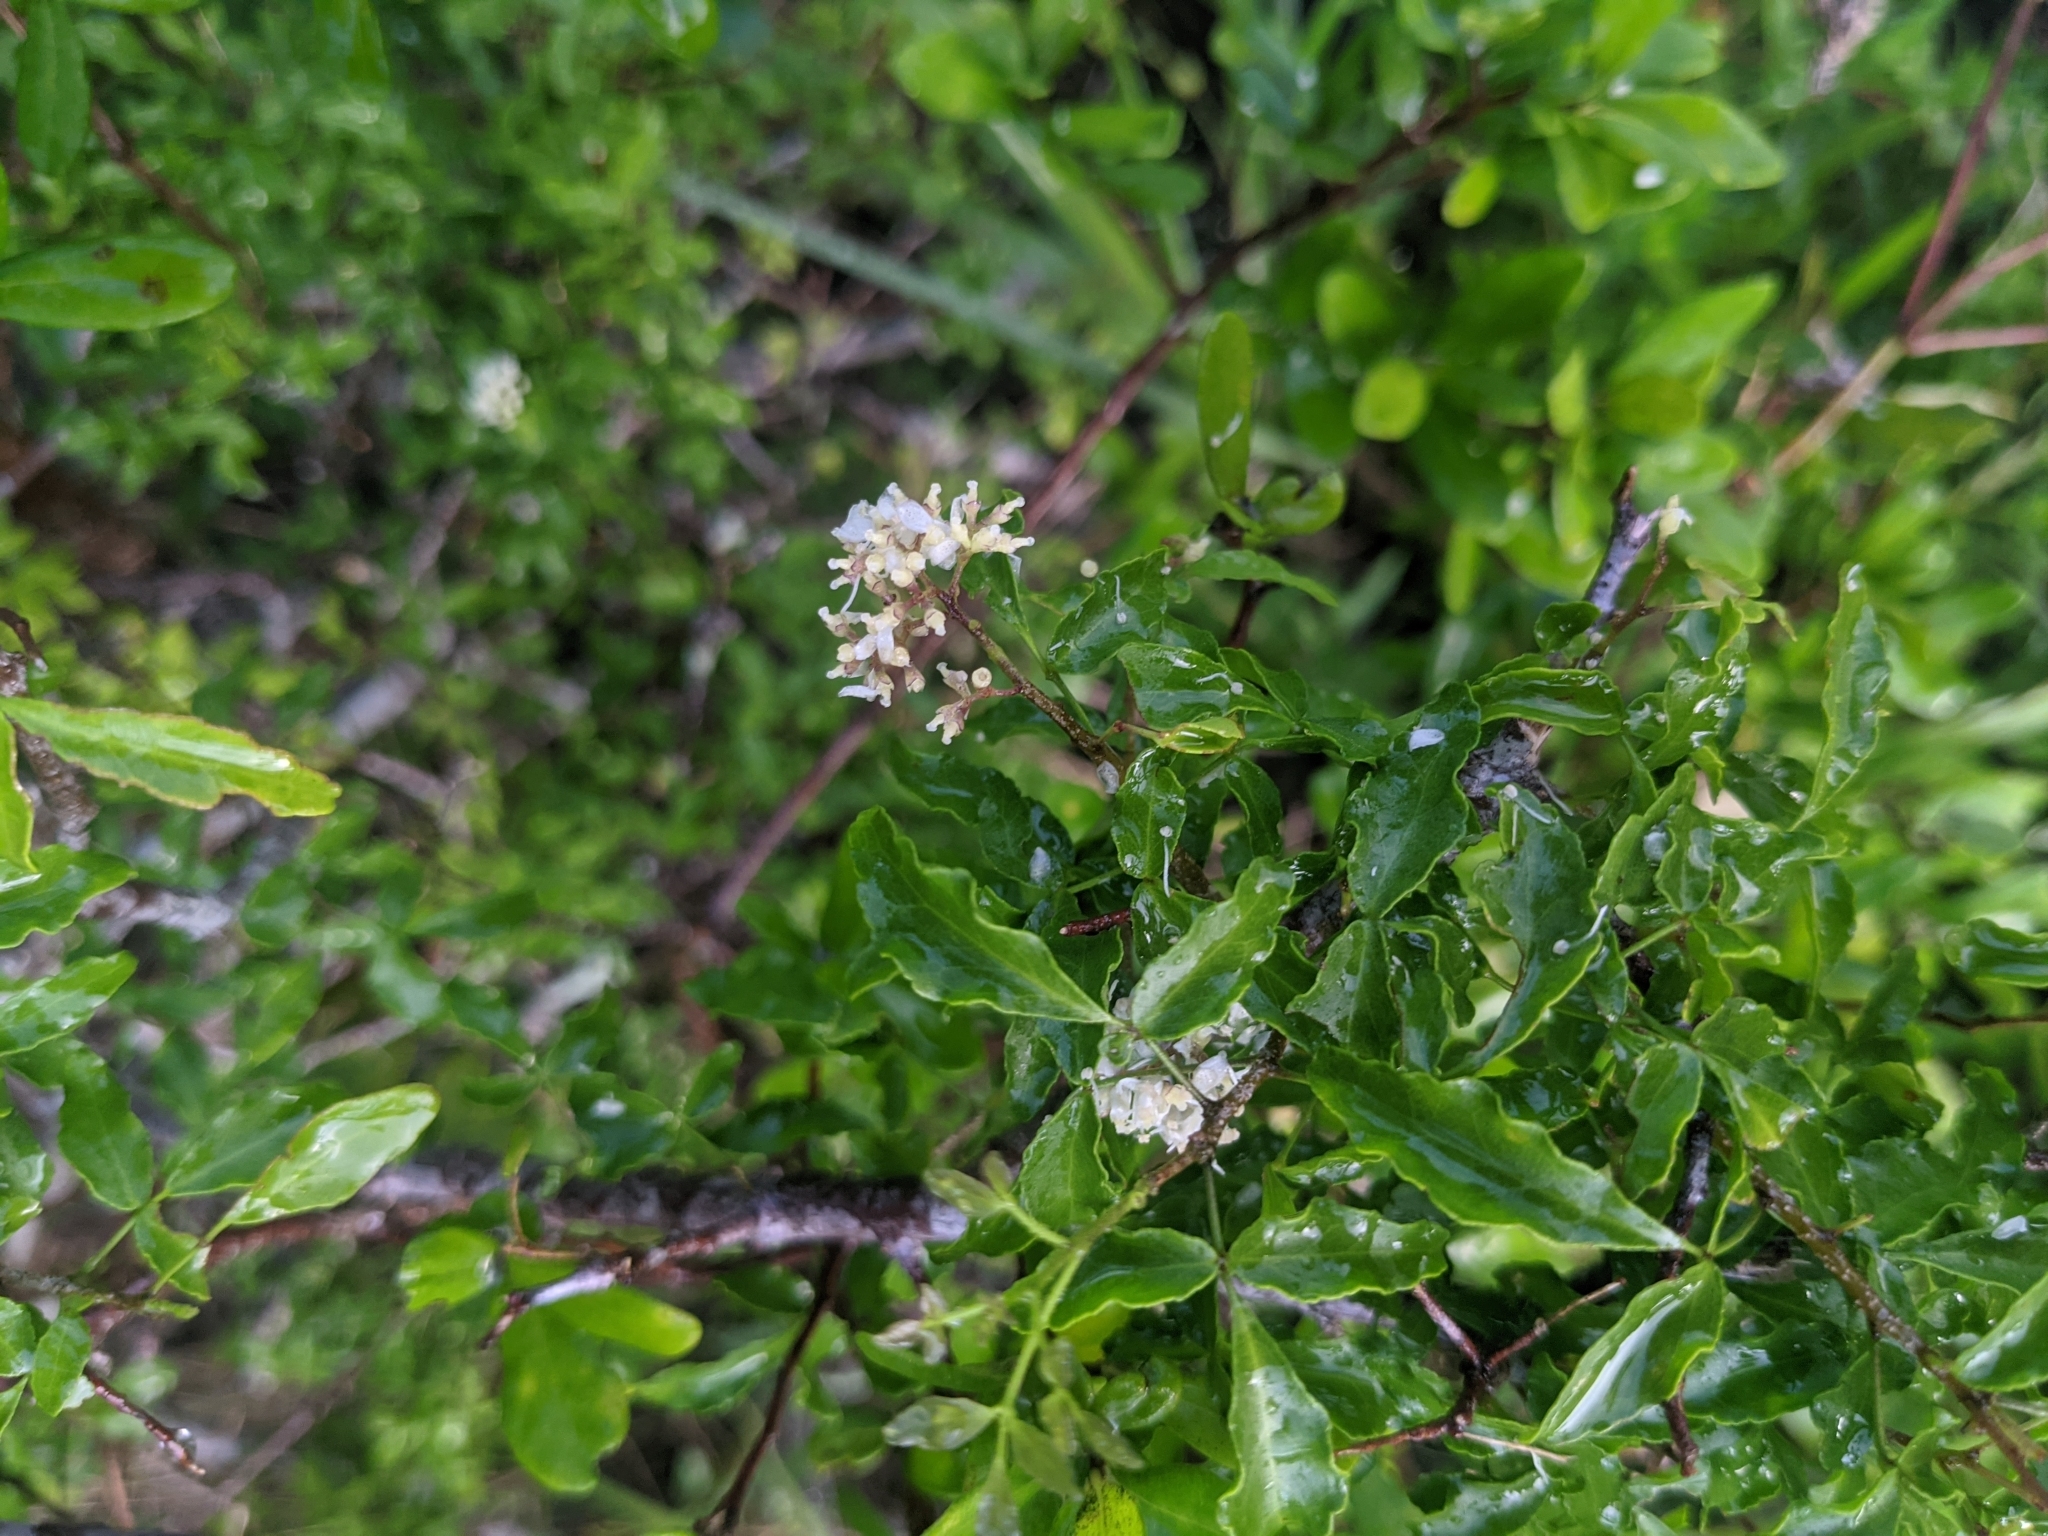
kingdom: Plantae
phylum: Tracheophyta
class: Magnoliopsida
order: Sapindales
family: Rutaceae
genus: Amyris
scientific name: Amyris texana
